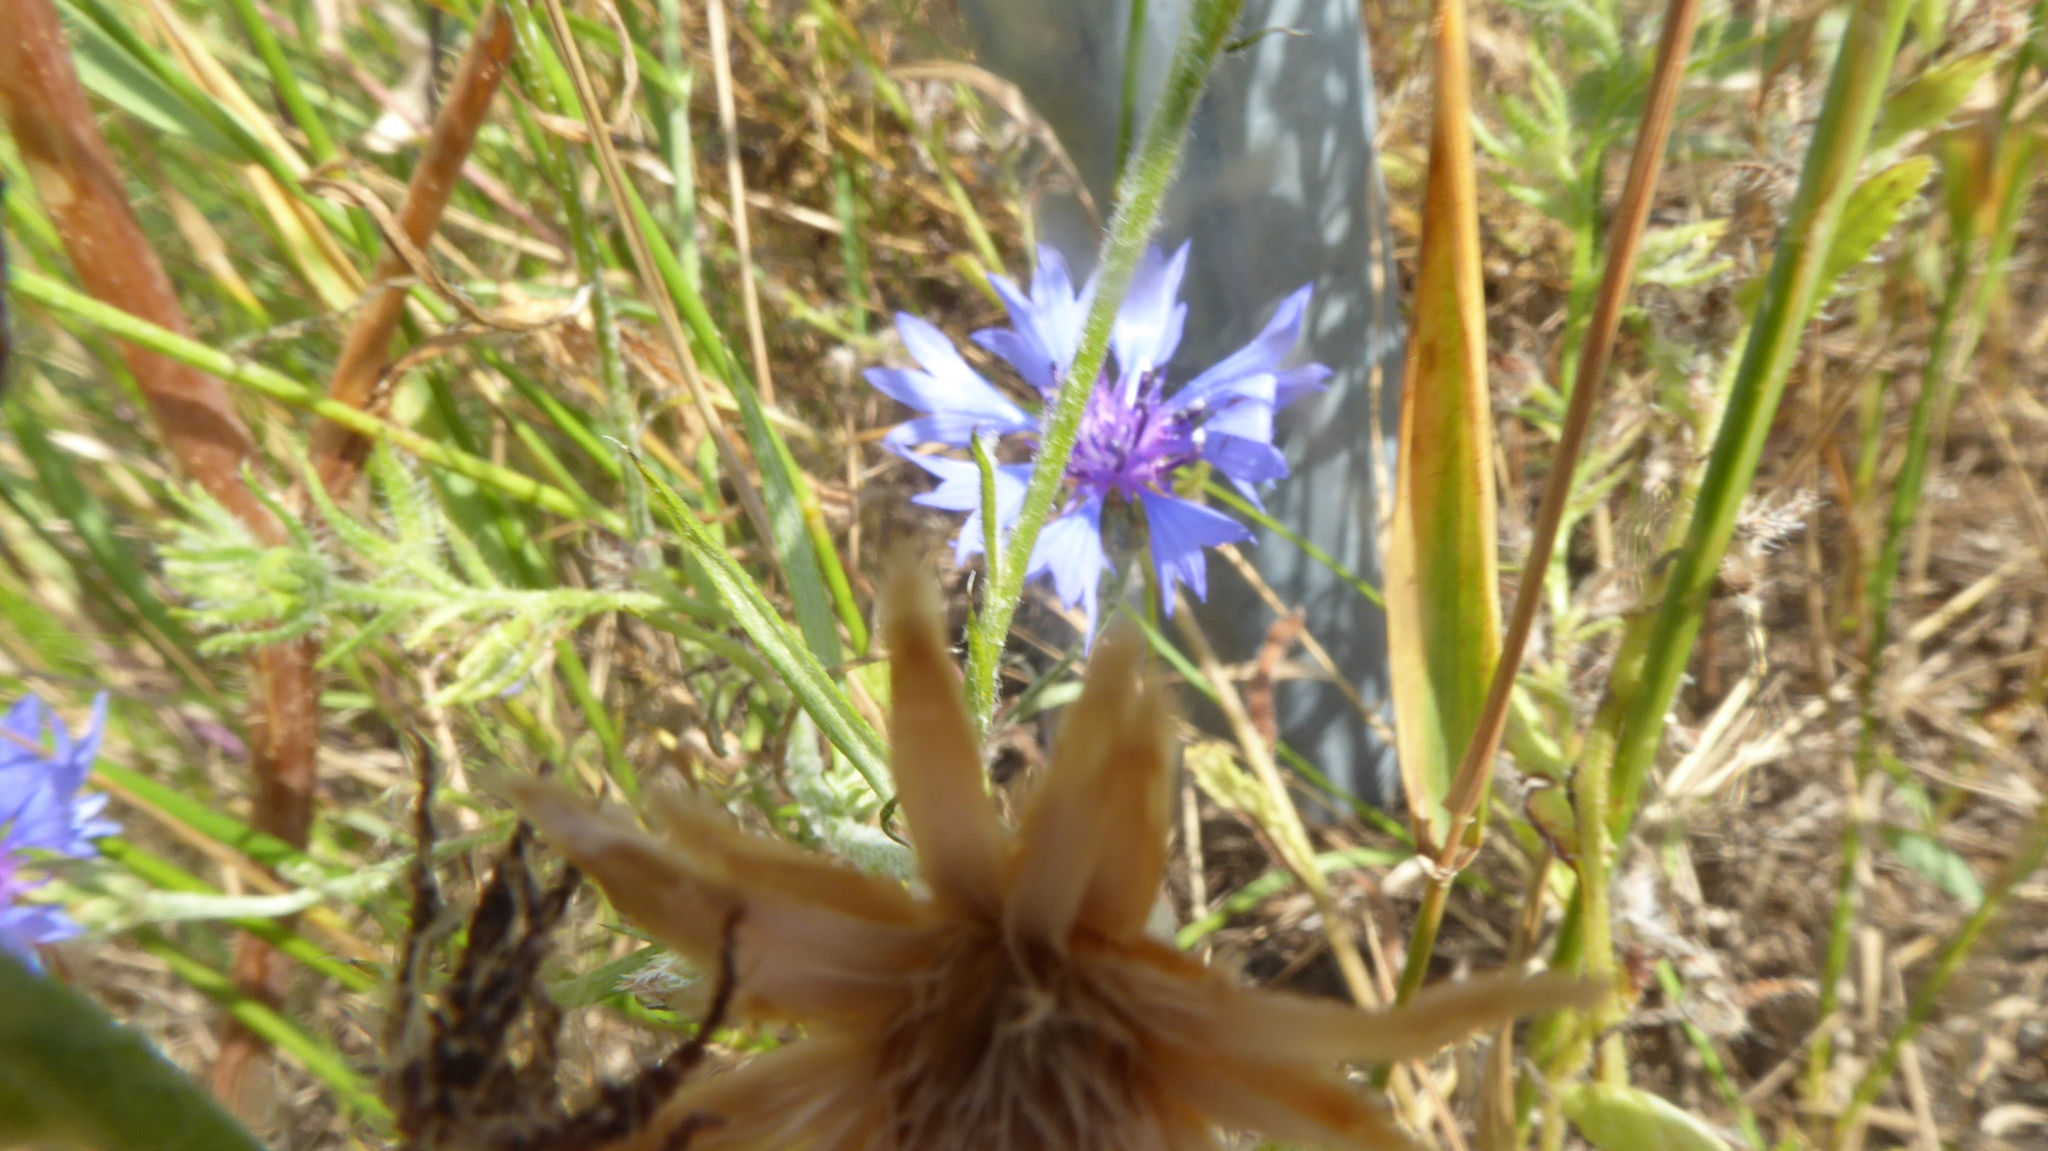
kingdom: Plantae
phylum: Tracheophyta
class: Magnoliopsida
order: Asterales
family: Asteraceae
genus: Centaurea
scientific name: Centaurea cyanus
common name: Cornflower
